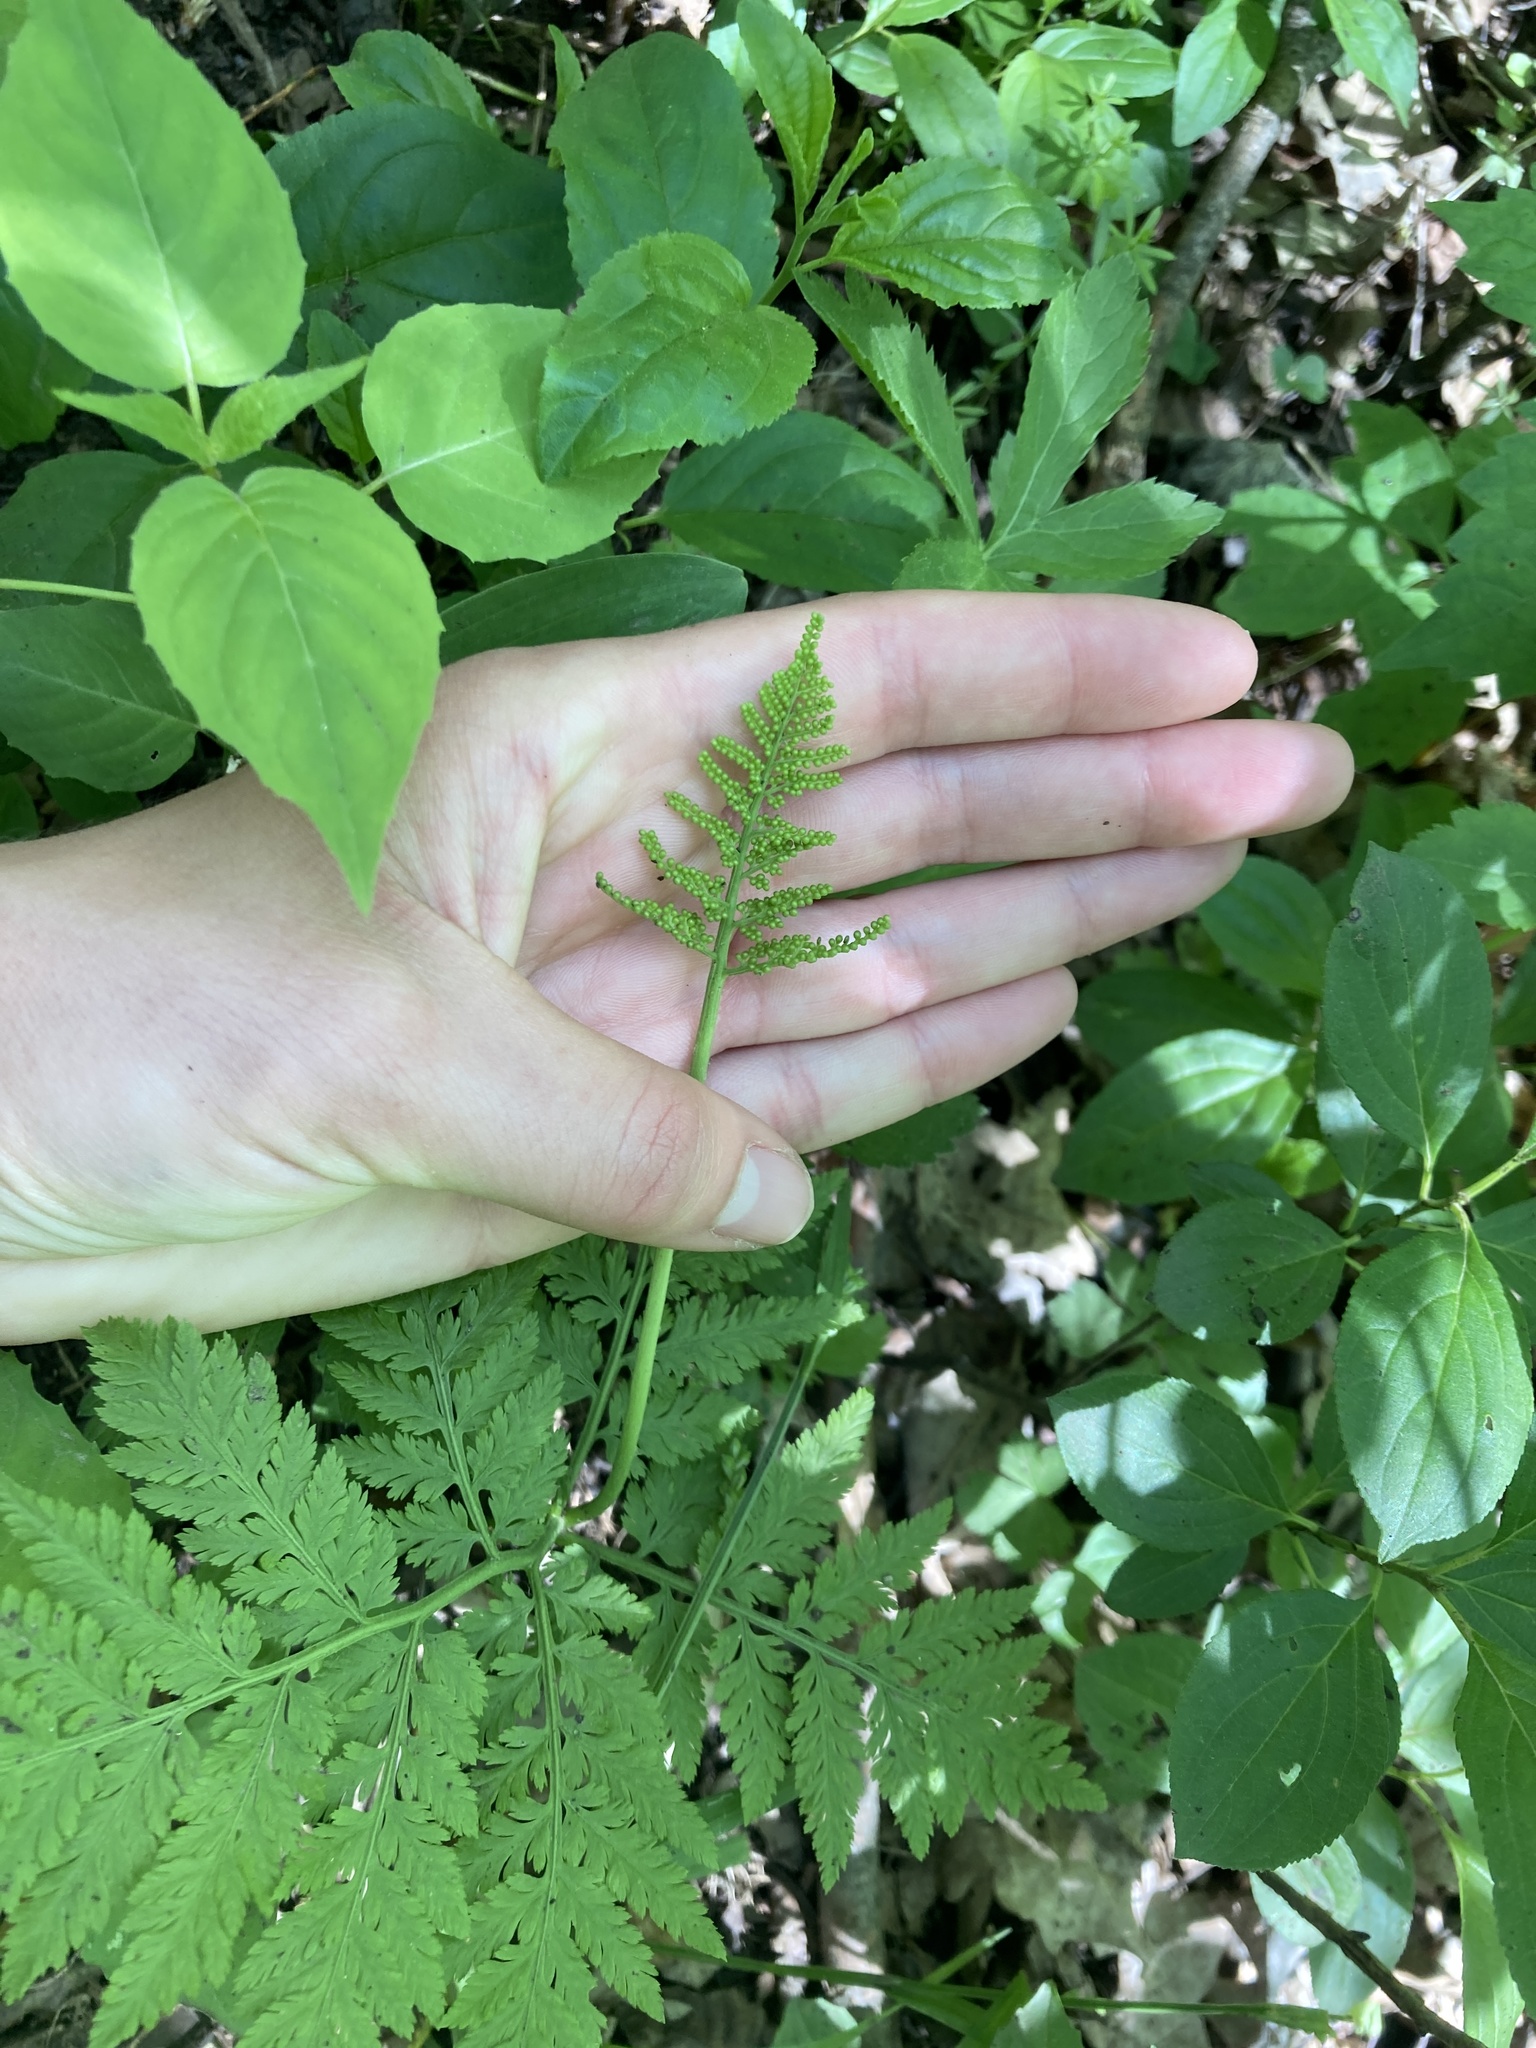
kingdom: Plantae
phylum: Tracheophyta
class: Polypodiopsida
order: Ophioglossales
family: Ophioglossaceae
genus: Botrypus
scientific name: Botrypus virginianus
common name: Common grapefern
